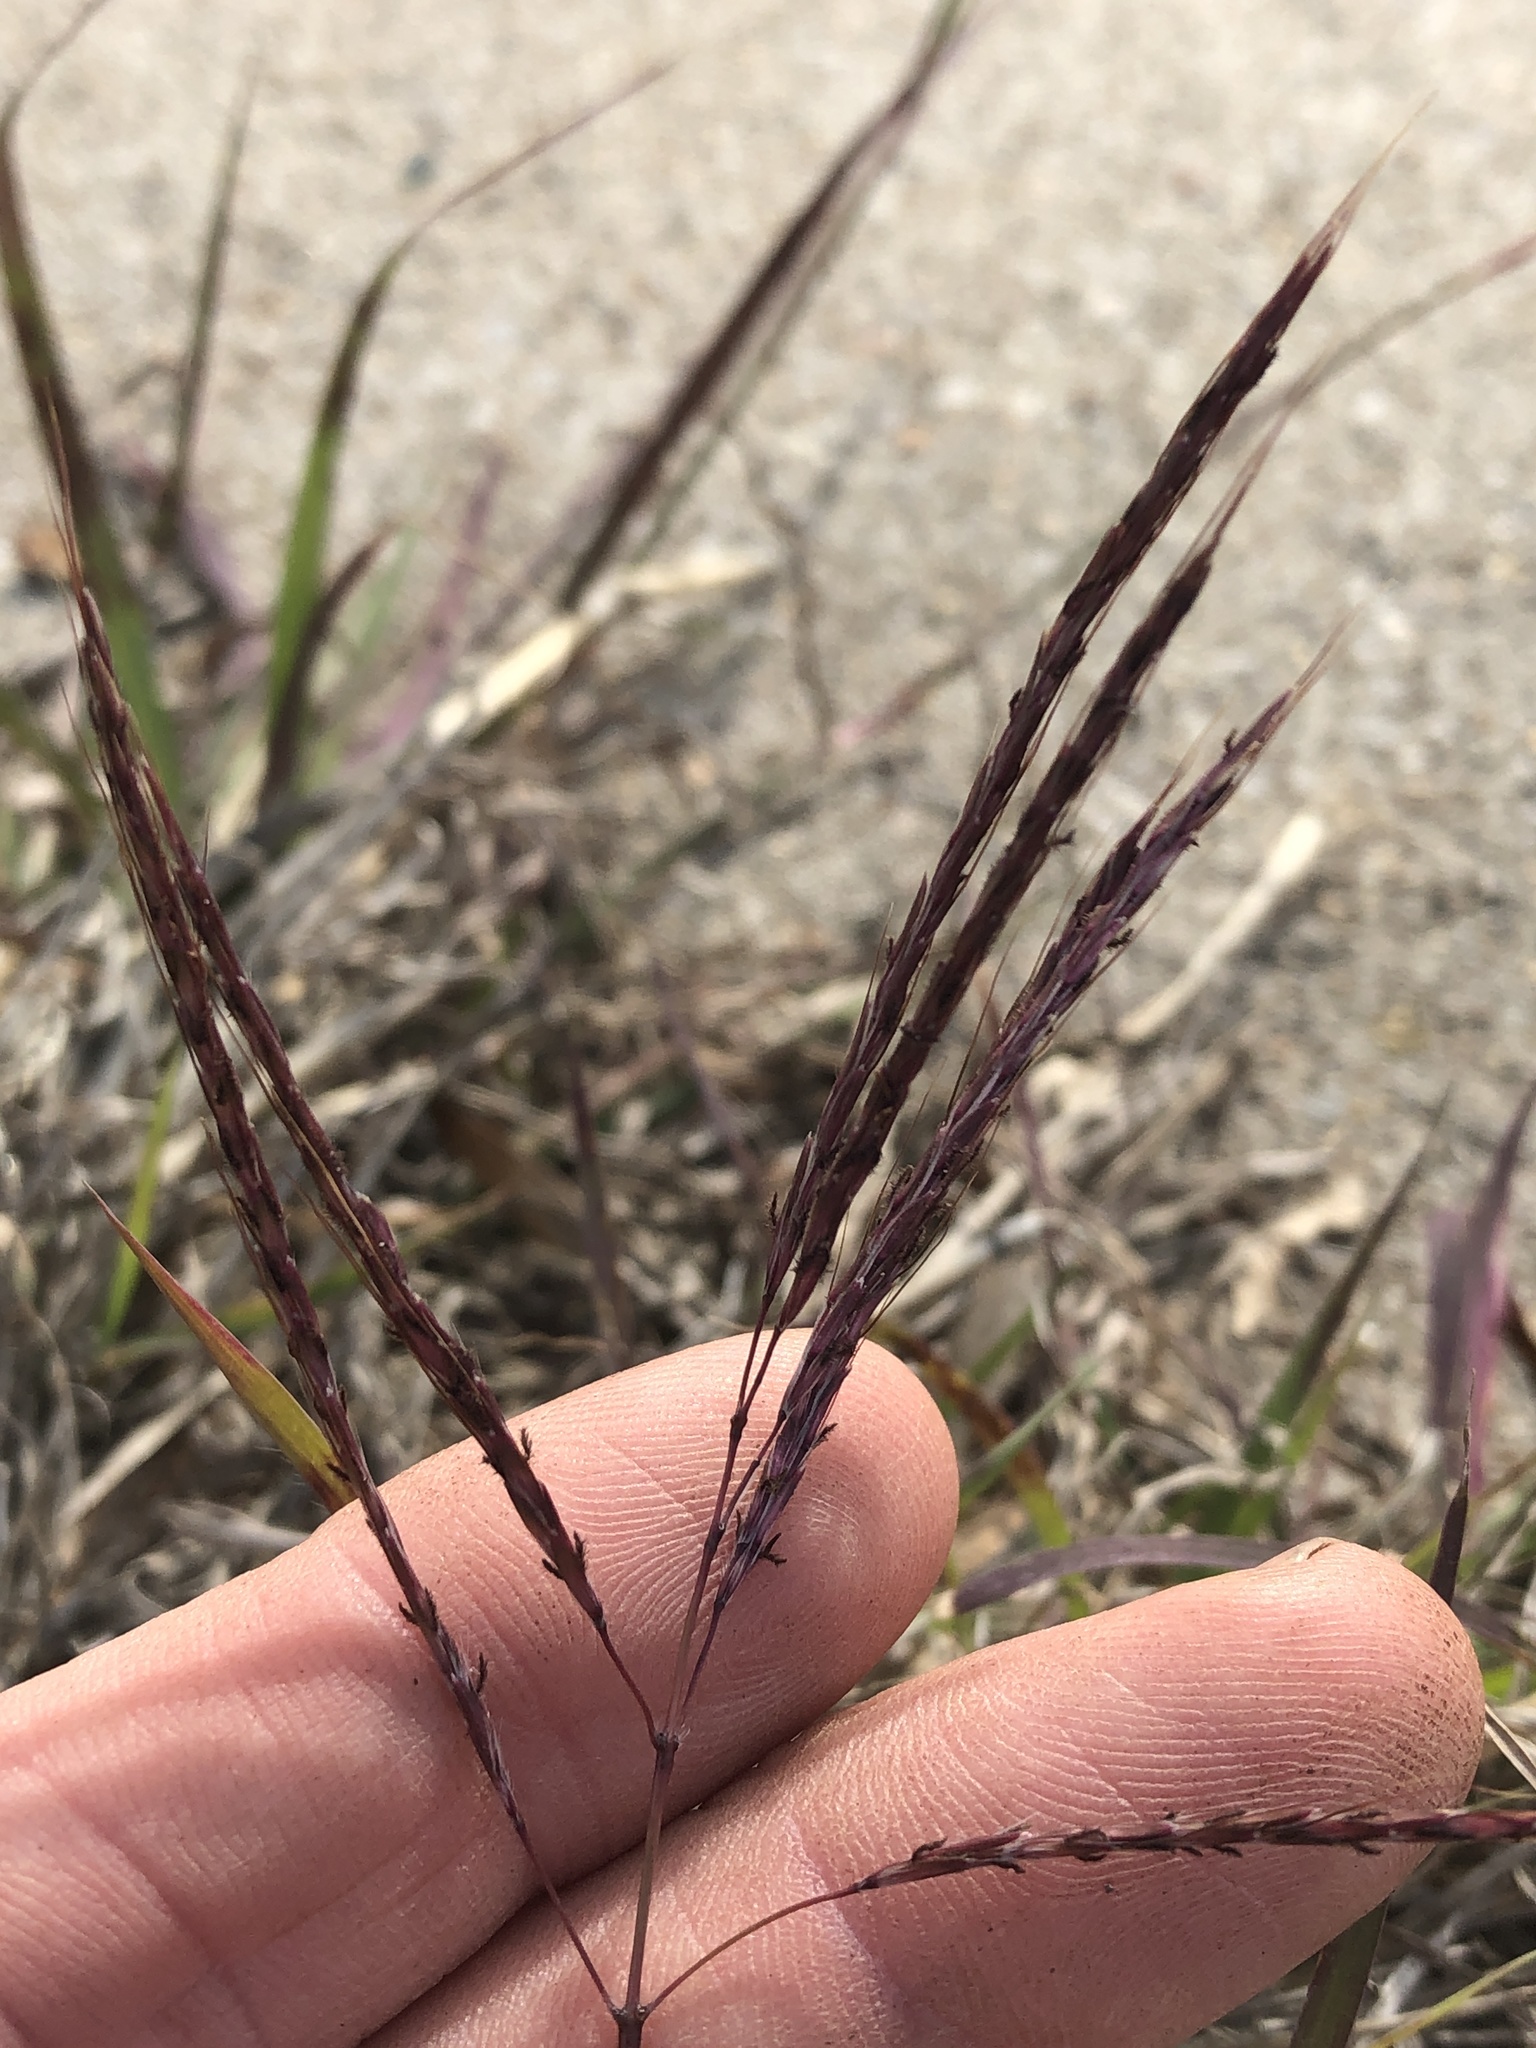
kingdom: Plantae
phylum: Tracheophyta
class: Liliopsida
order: Poales
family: Poaceae
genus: Bothriochloa
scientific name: Bothriochloa ischaemum
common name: Yellow bluestem
